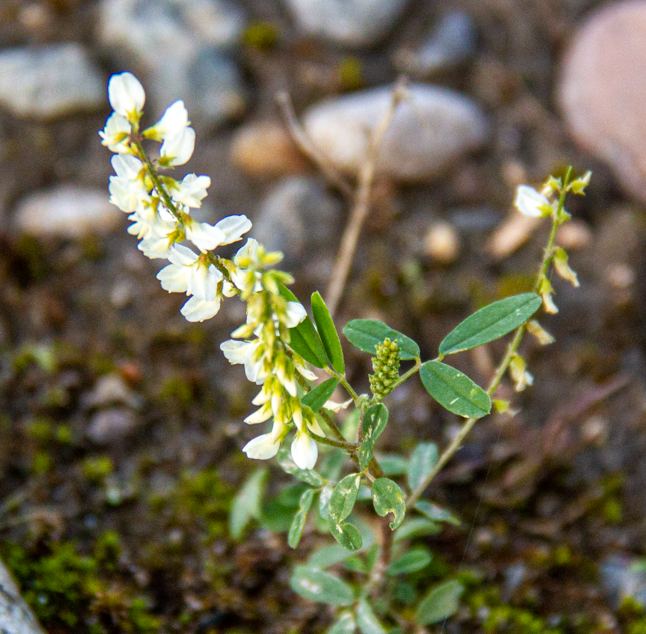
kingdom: Plantae
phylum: Tracheophyta
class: Magnoliopsida
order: Fabales
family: Fabaceae
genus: Melilotus
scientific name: Melilotus albus
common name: White melilot
